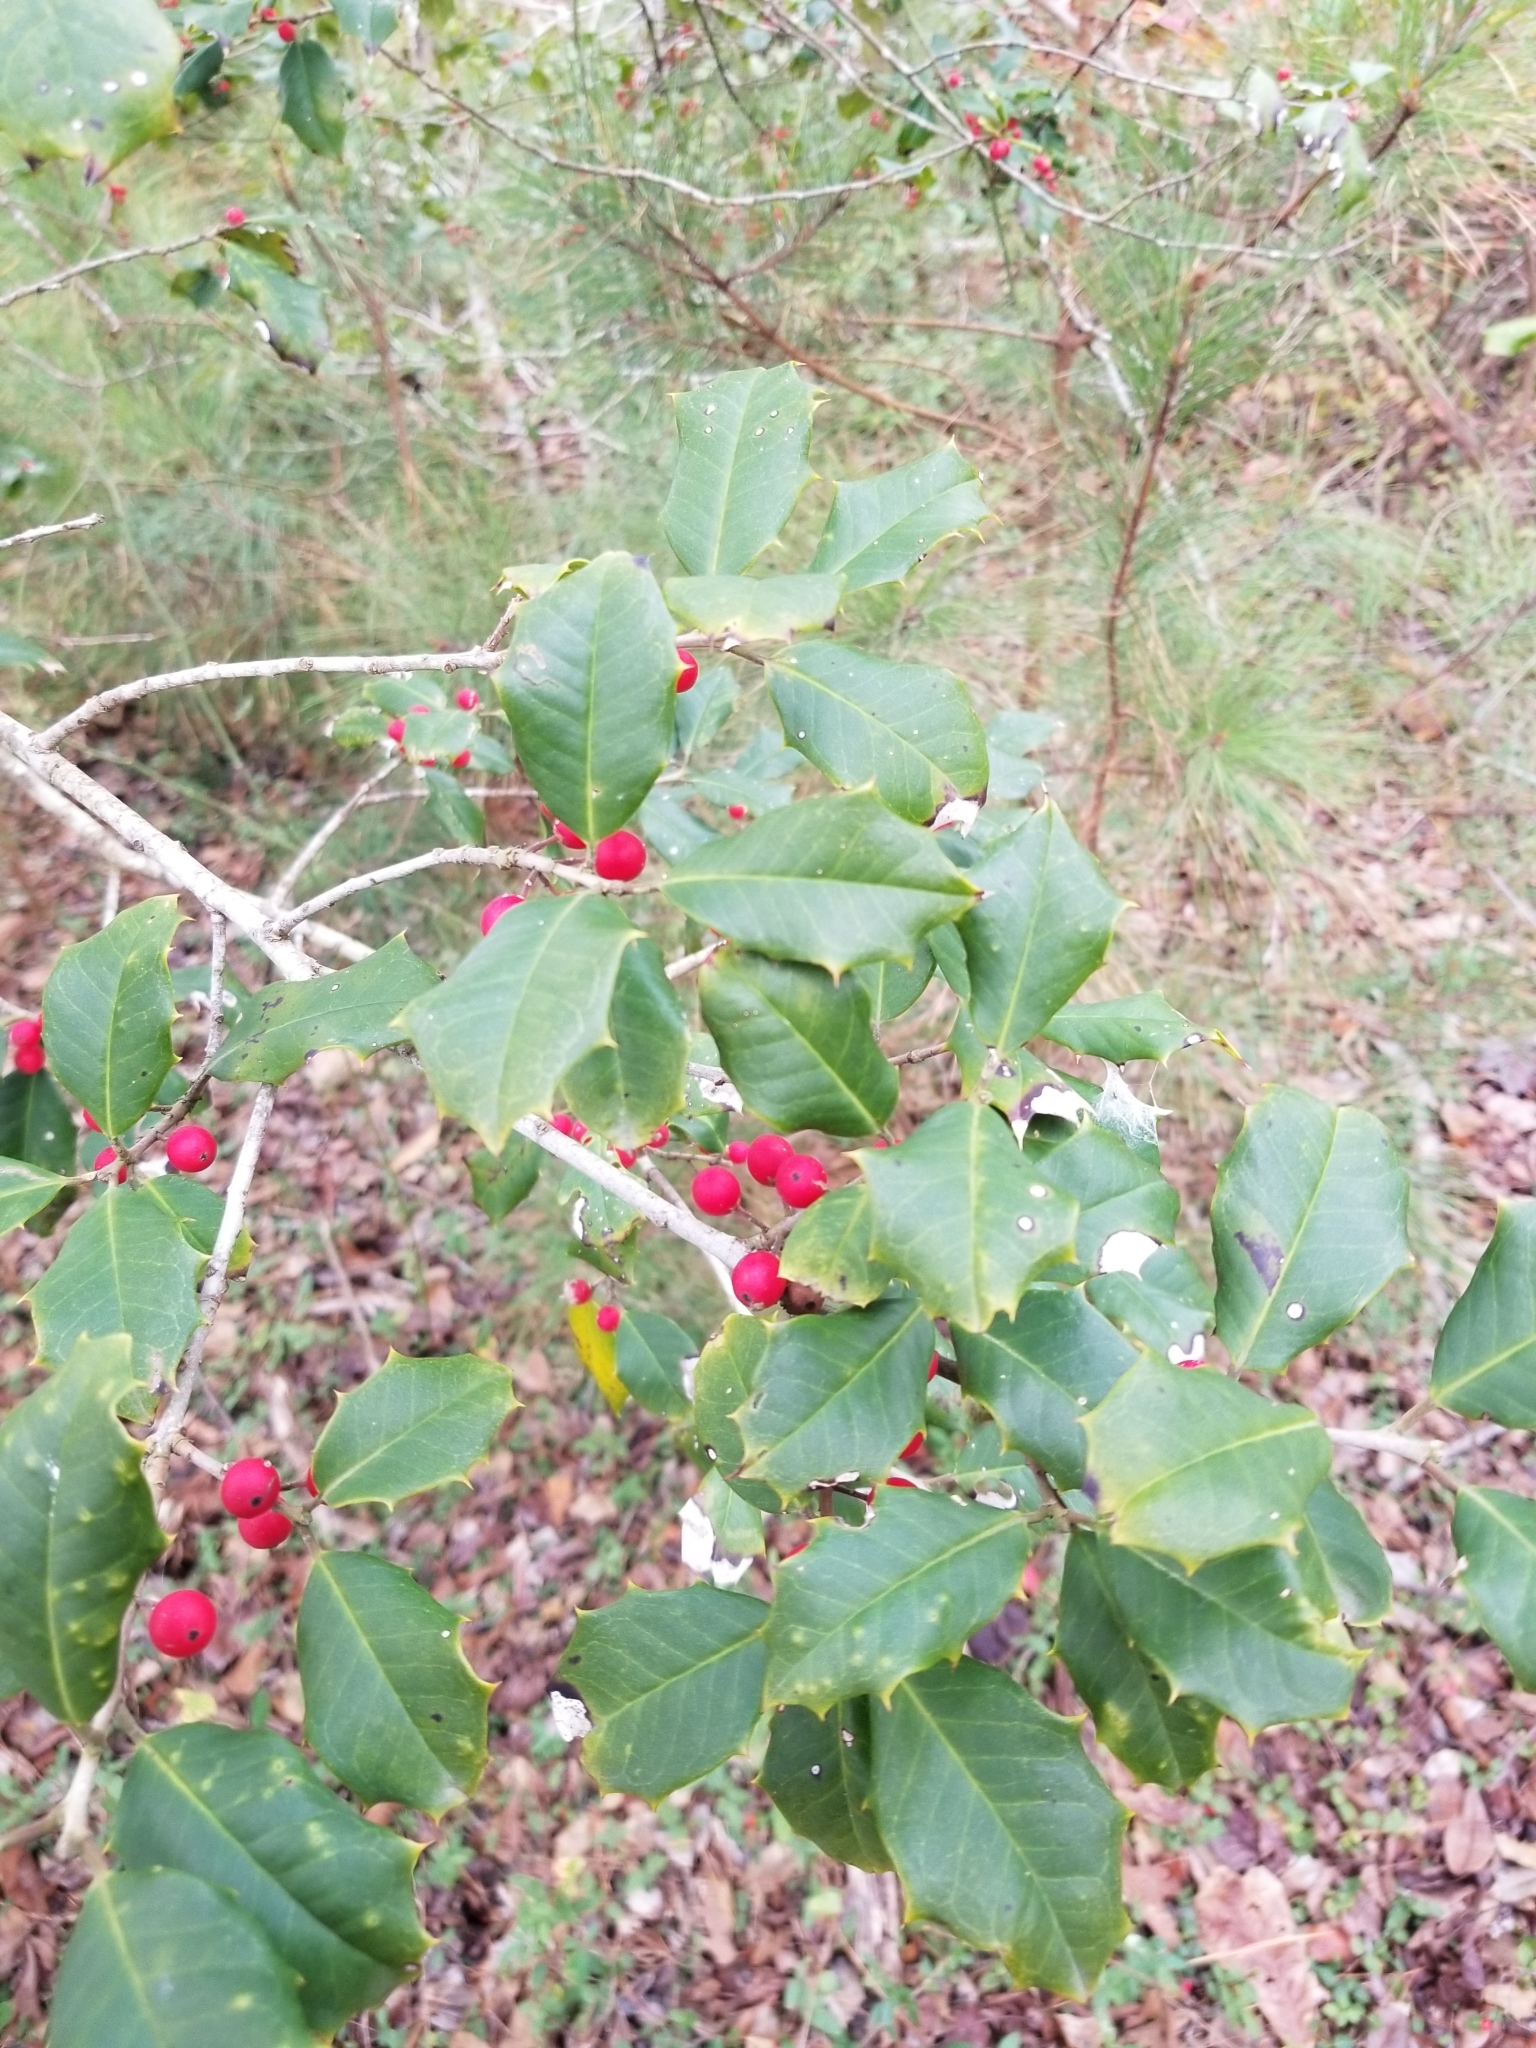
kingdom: Plantae
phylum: Tracheophyta
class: Magnoliopsida
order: Aquifoliales
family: Aquifoliaceae
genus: Ilex
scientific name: Ilex opaca
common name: American holly
